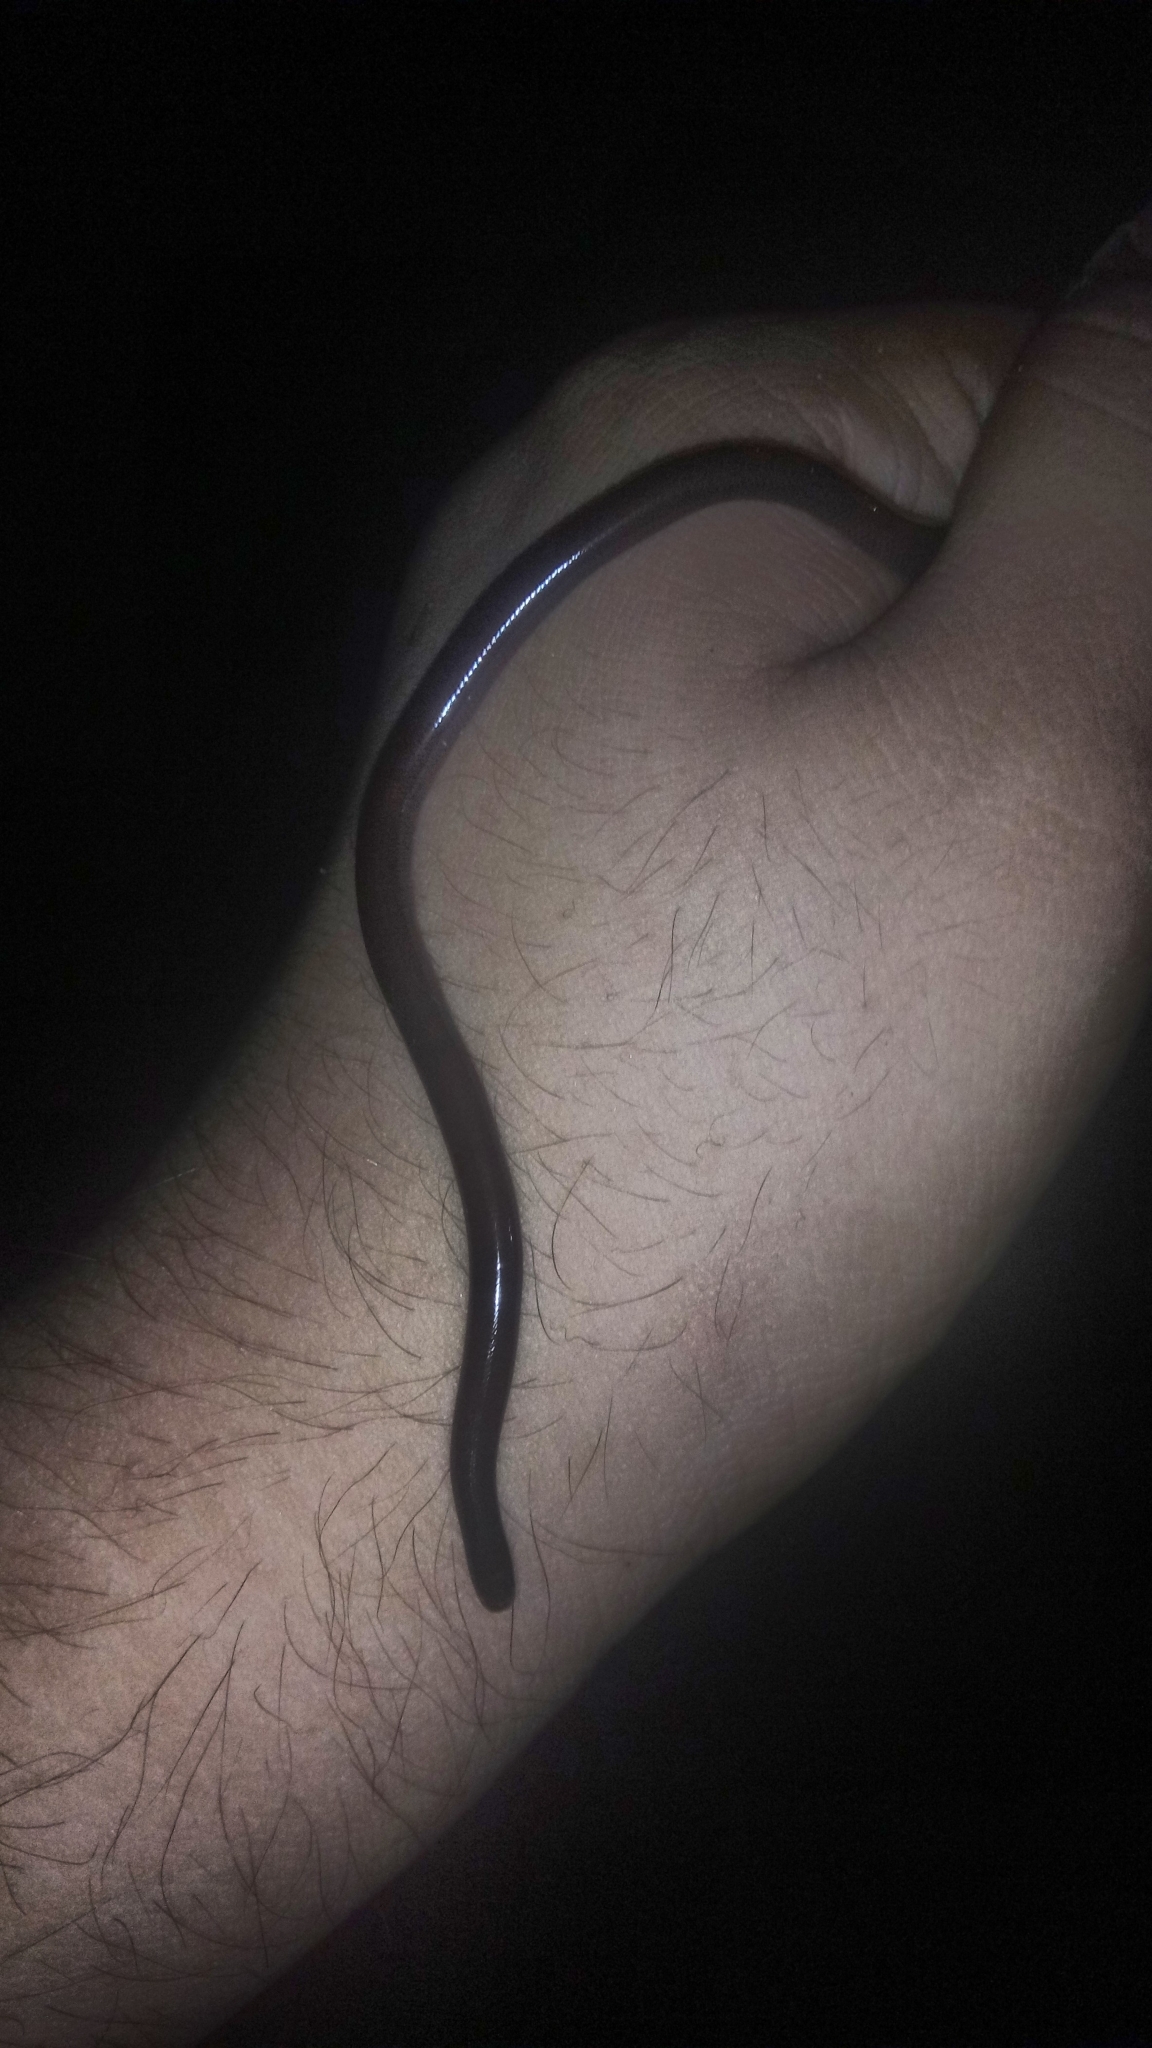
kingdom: Animalia
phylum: Chordata
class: Squamata
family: Typhlopidae
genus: Indotyphlops
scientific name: Indotyphlops braminus
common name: Brahminy blindsnake
